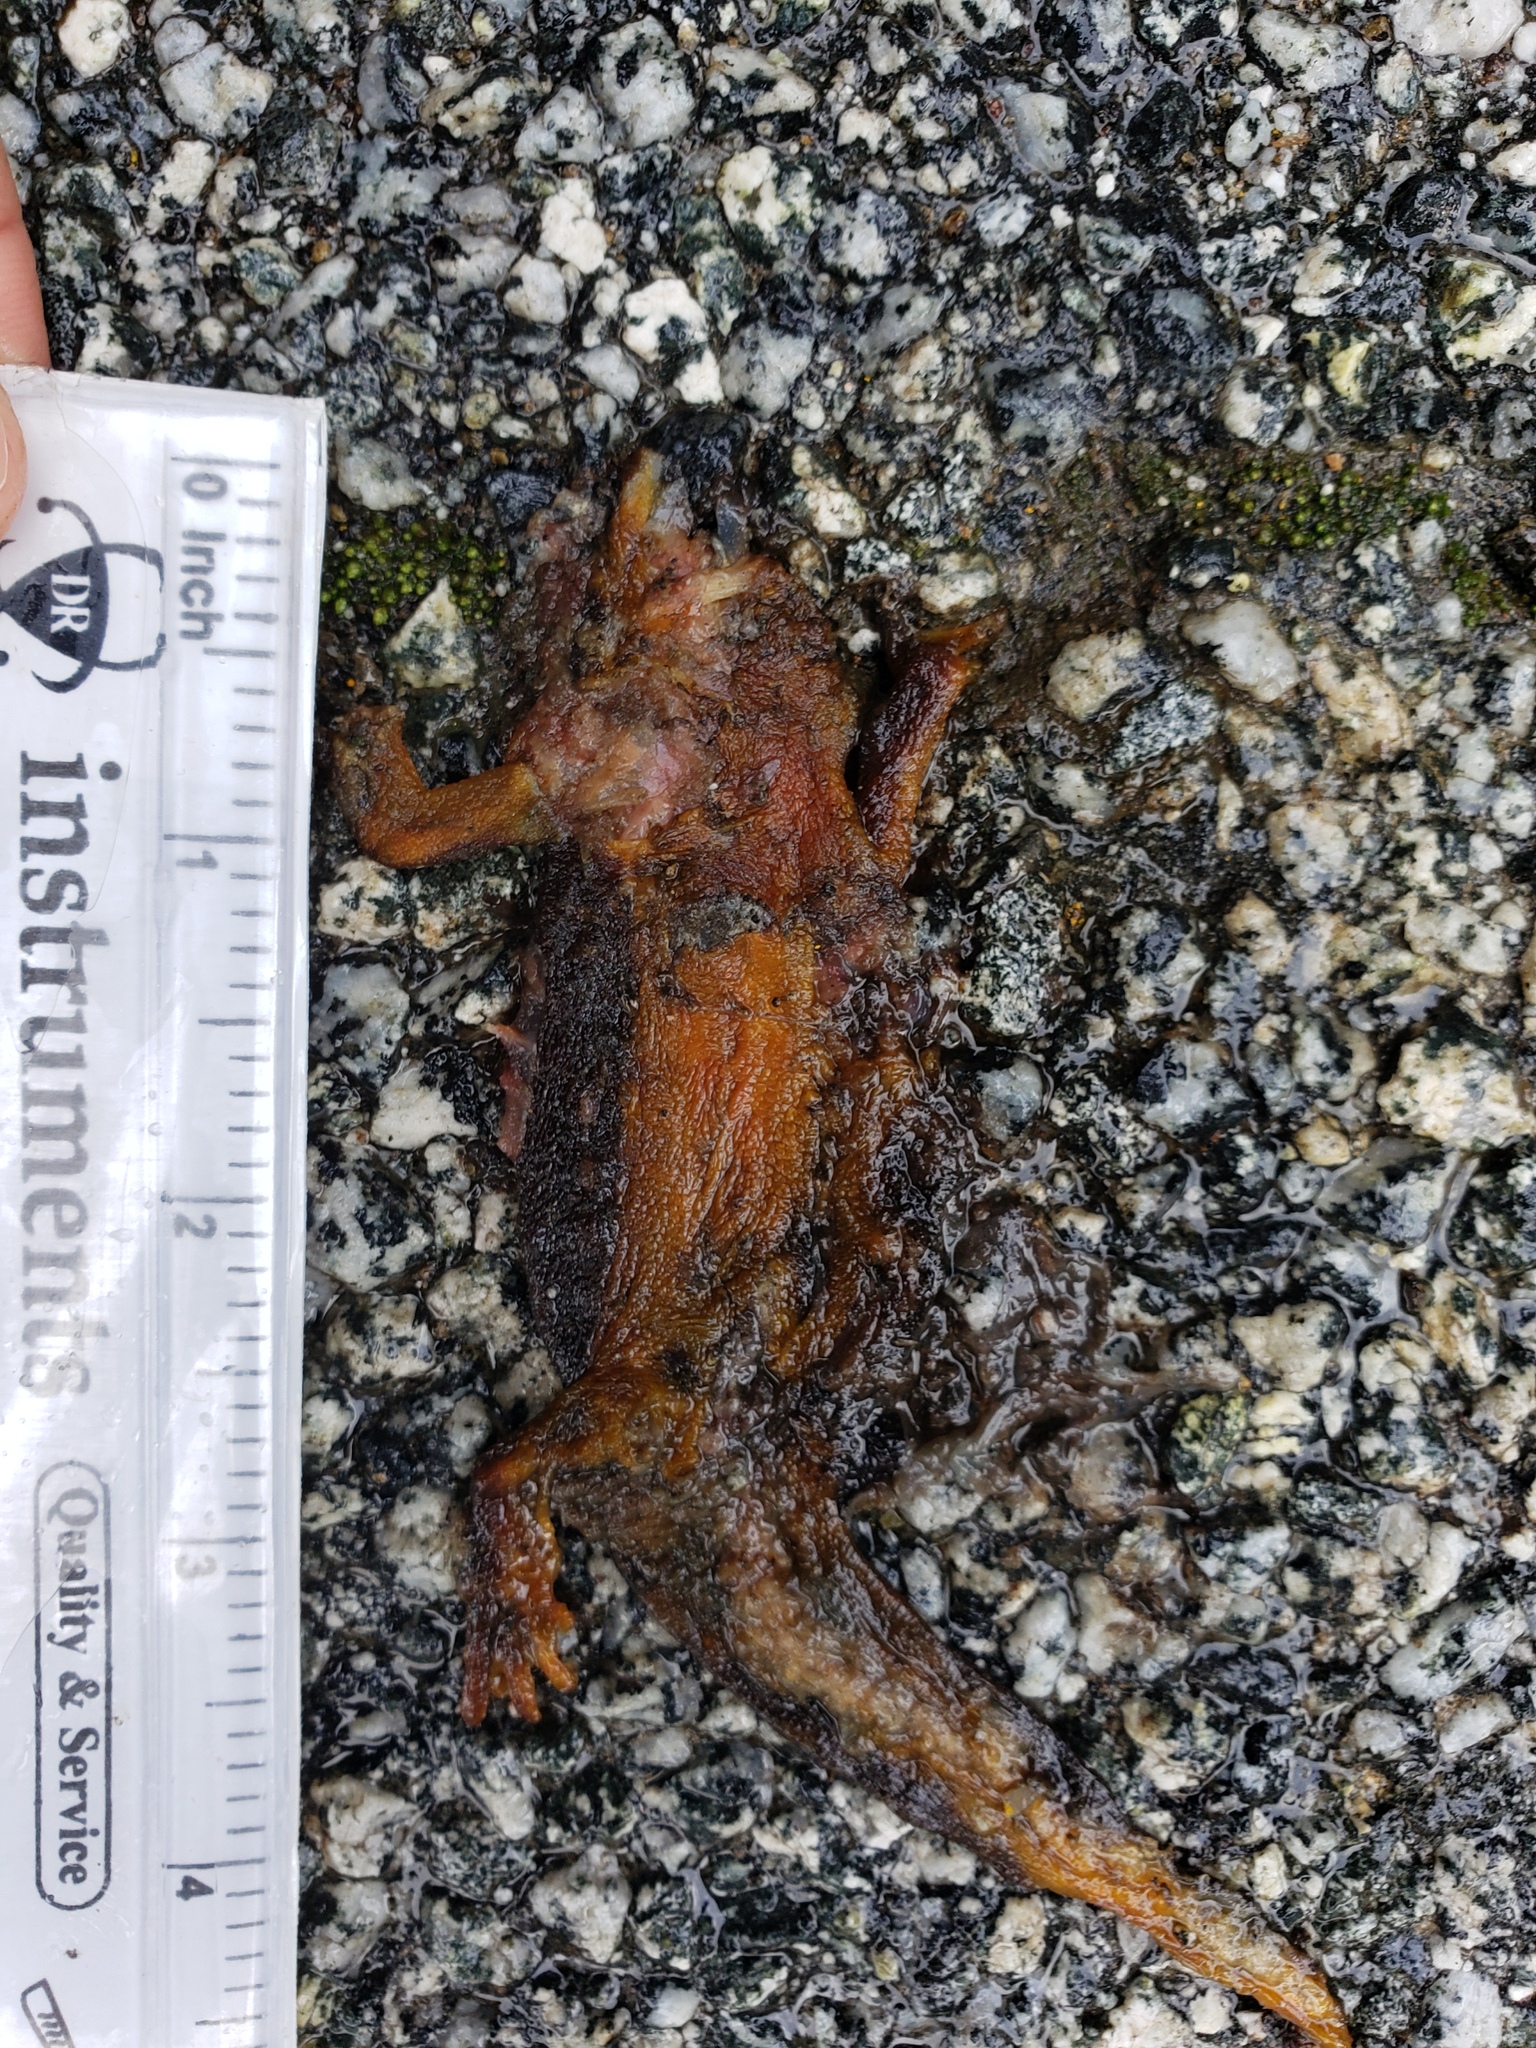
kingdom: Animalia
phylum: Chordata
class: Amphibia
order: Caudata
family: Salamandridae
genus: Taricha
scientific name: Taricha
